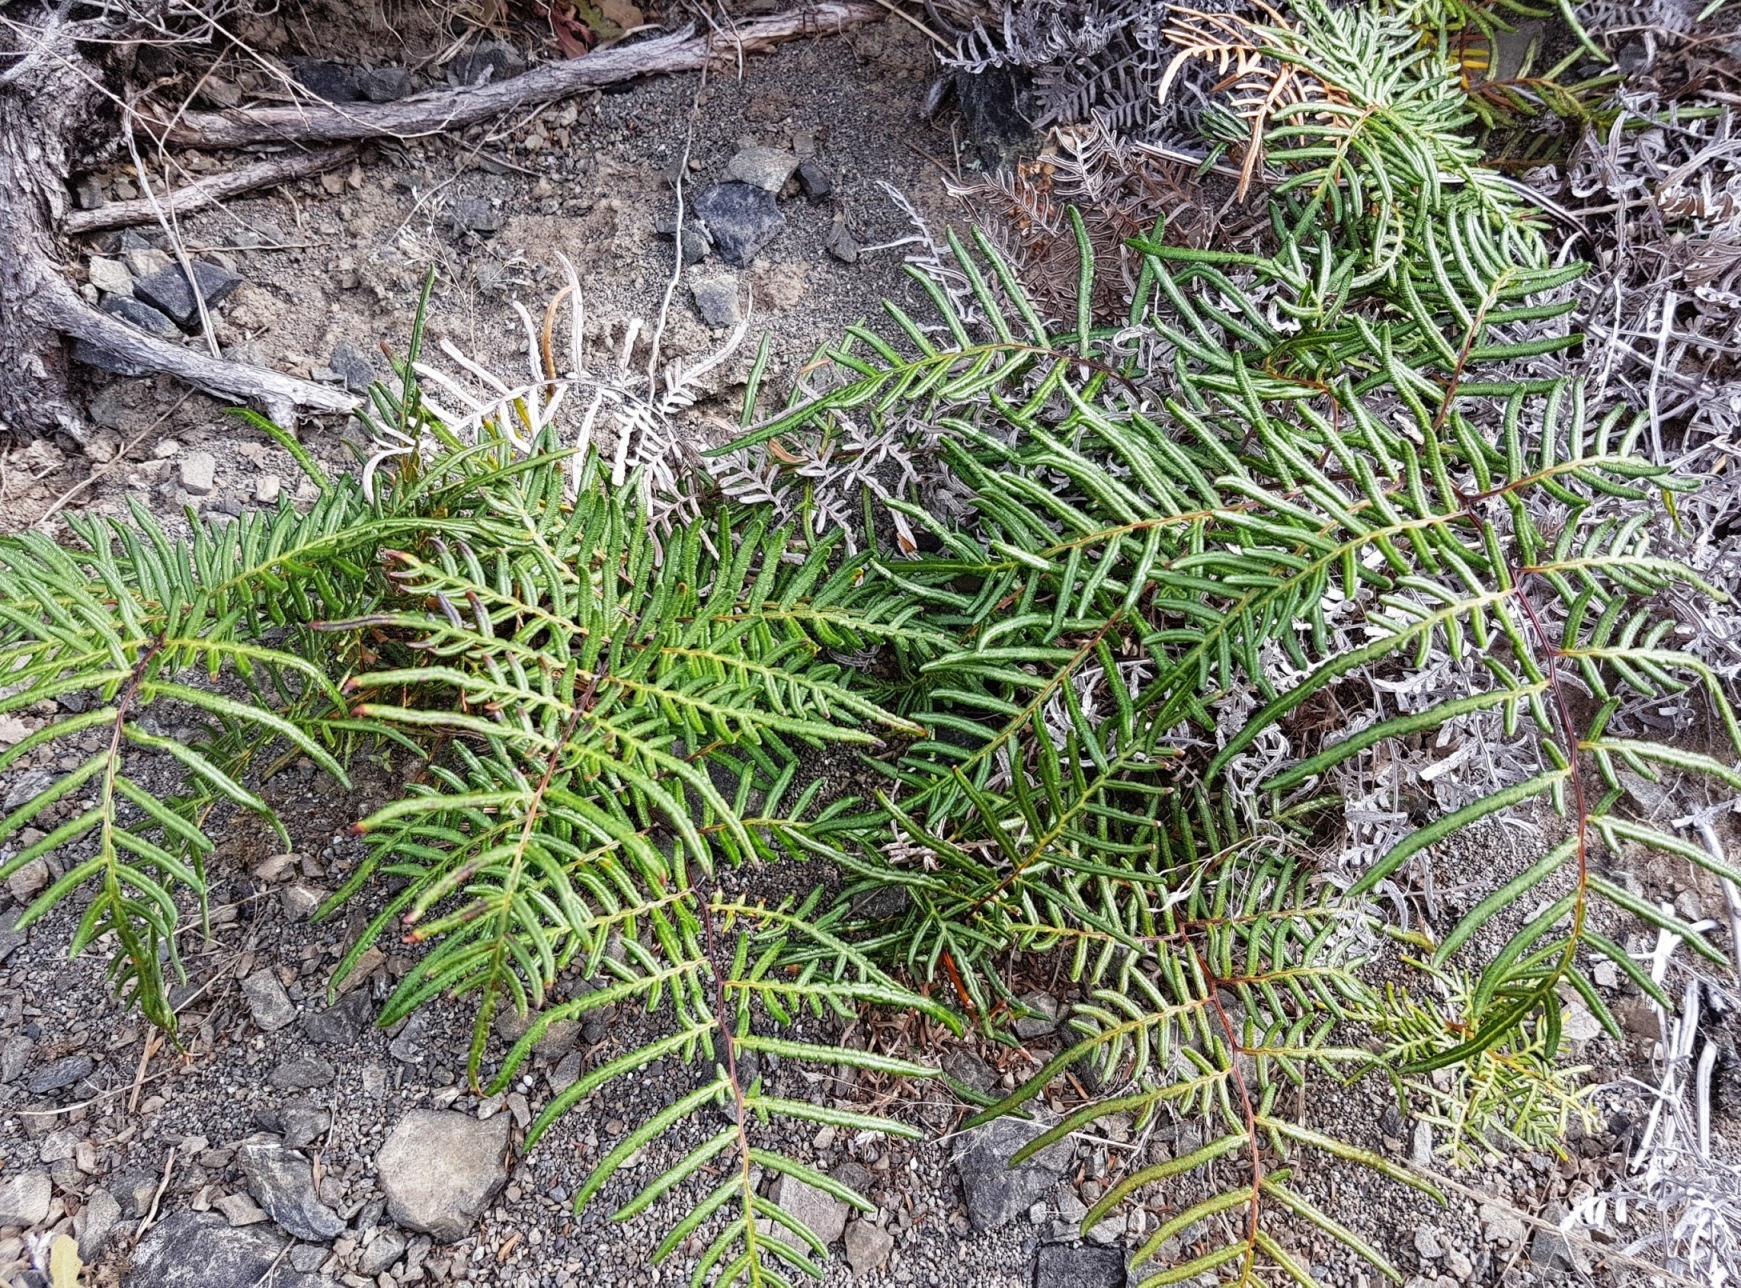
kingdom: Plantae
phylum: Tracheophyta
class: Polypodiopsida
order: Polypodiales
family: Dennstaedtiaceae
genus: Pteridium
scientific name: Pteridium esculentum
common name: Bracken fern
